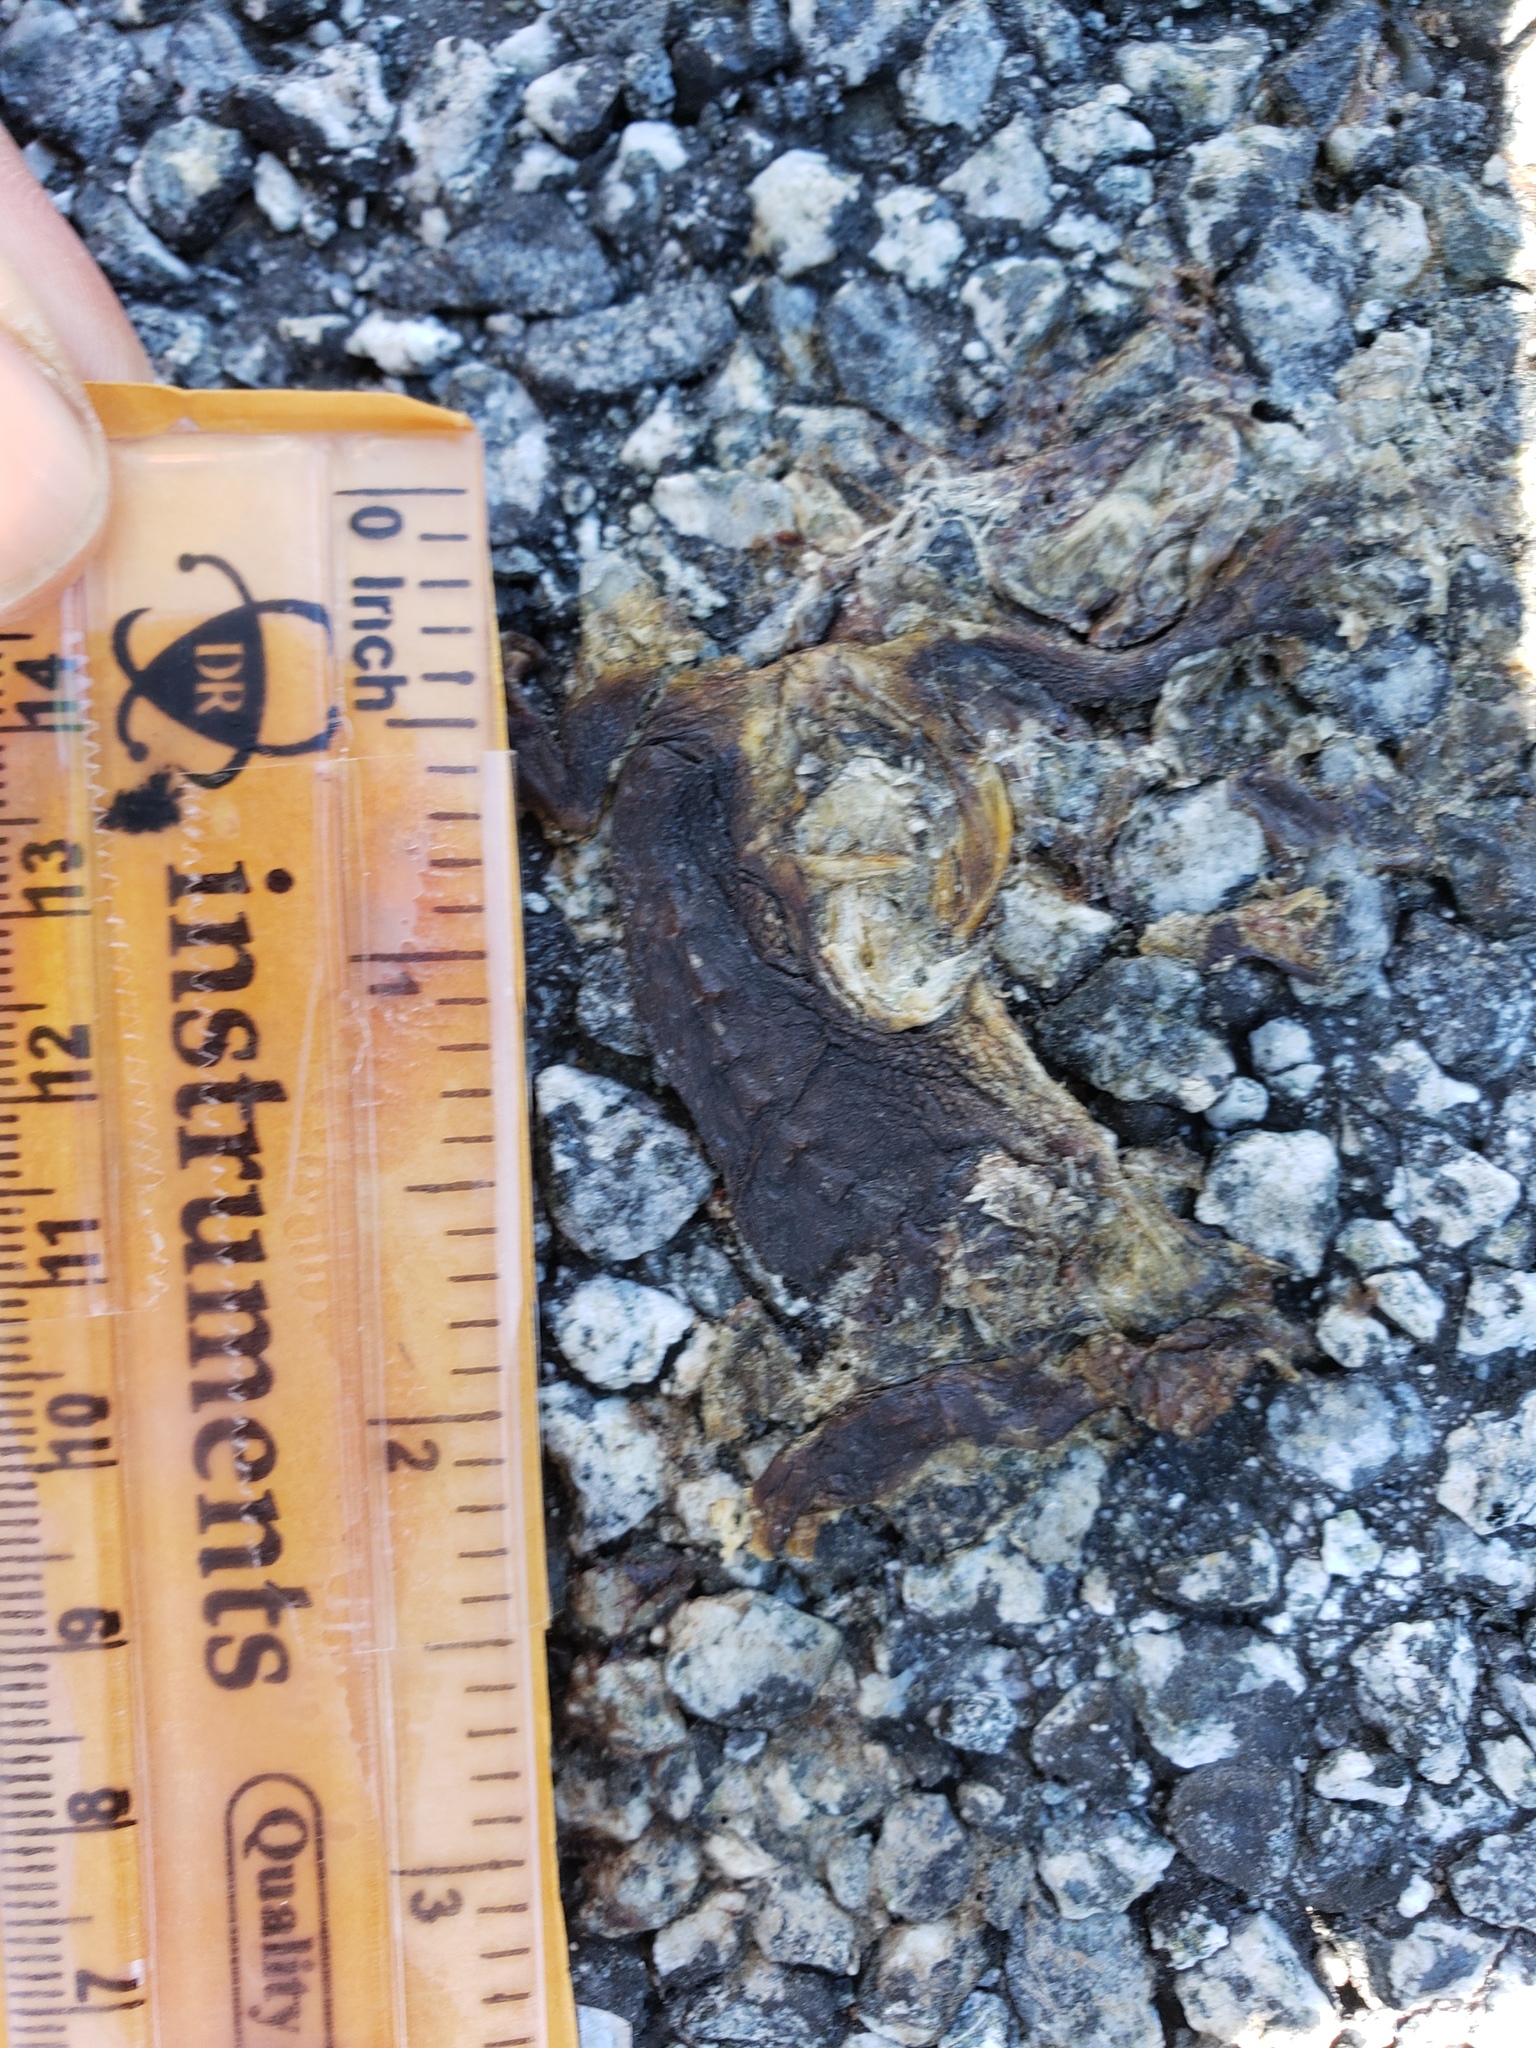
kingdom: Animalia
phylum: Chordata
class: Amphibia
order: Caudata
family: Salamandridae
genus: Taricha
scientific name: Taricha
